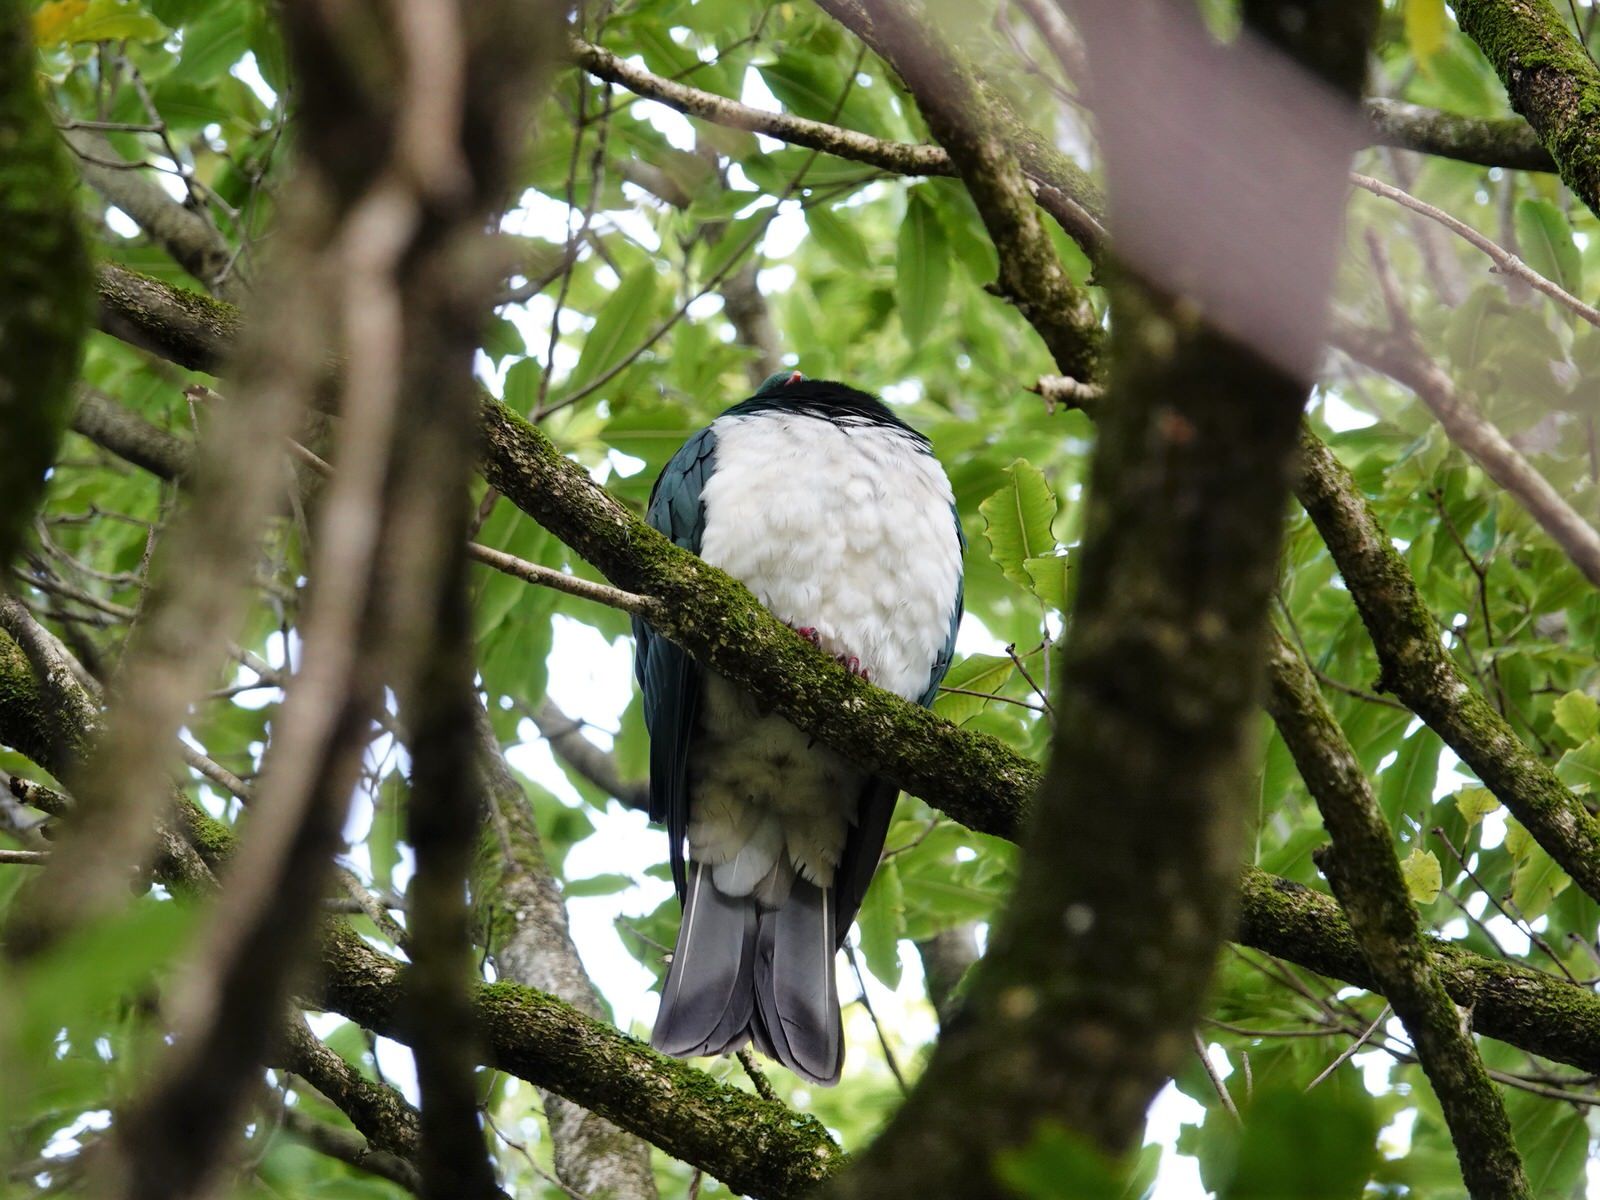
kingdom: Animalia
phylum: Chordata
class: Aves
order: Columbiformes
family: Columbidae
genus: Hemiphaga
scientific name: Hemiphaga novaeseelandiae
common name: New zealand pigeon
